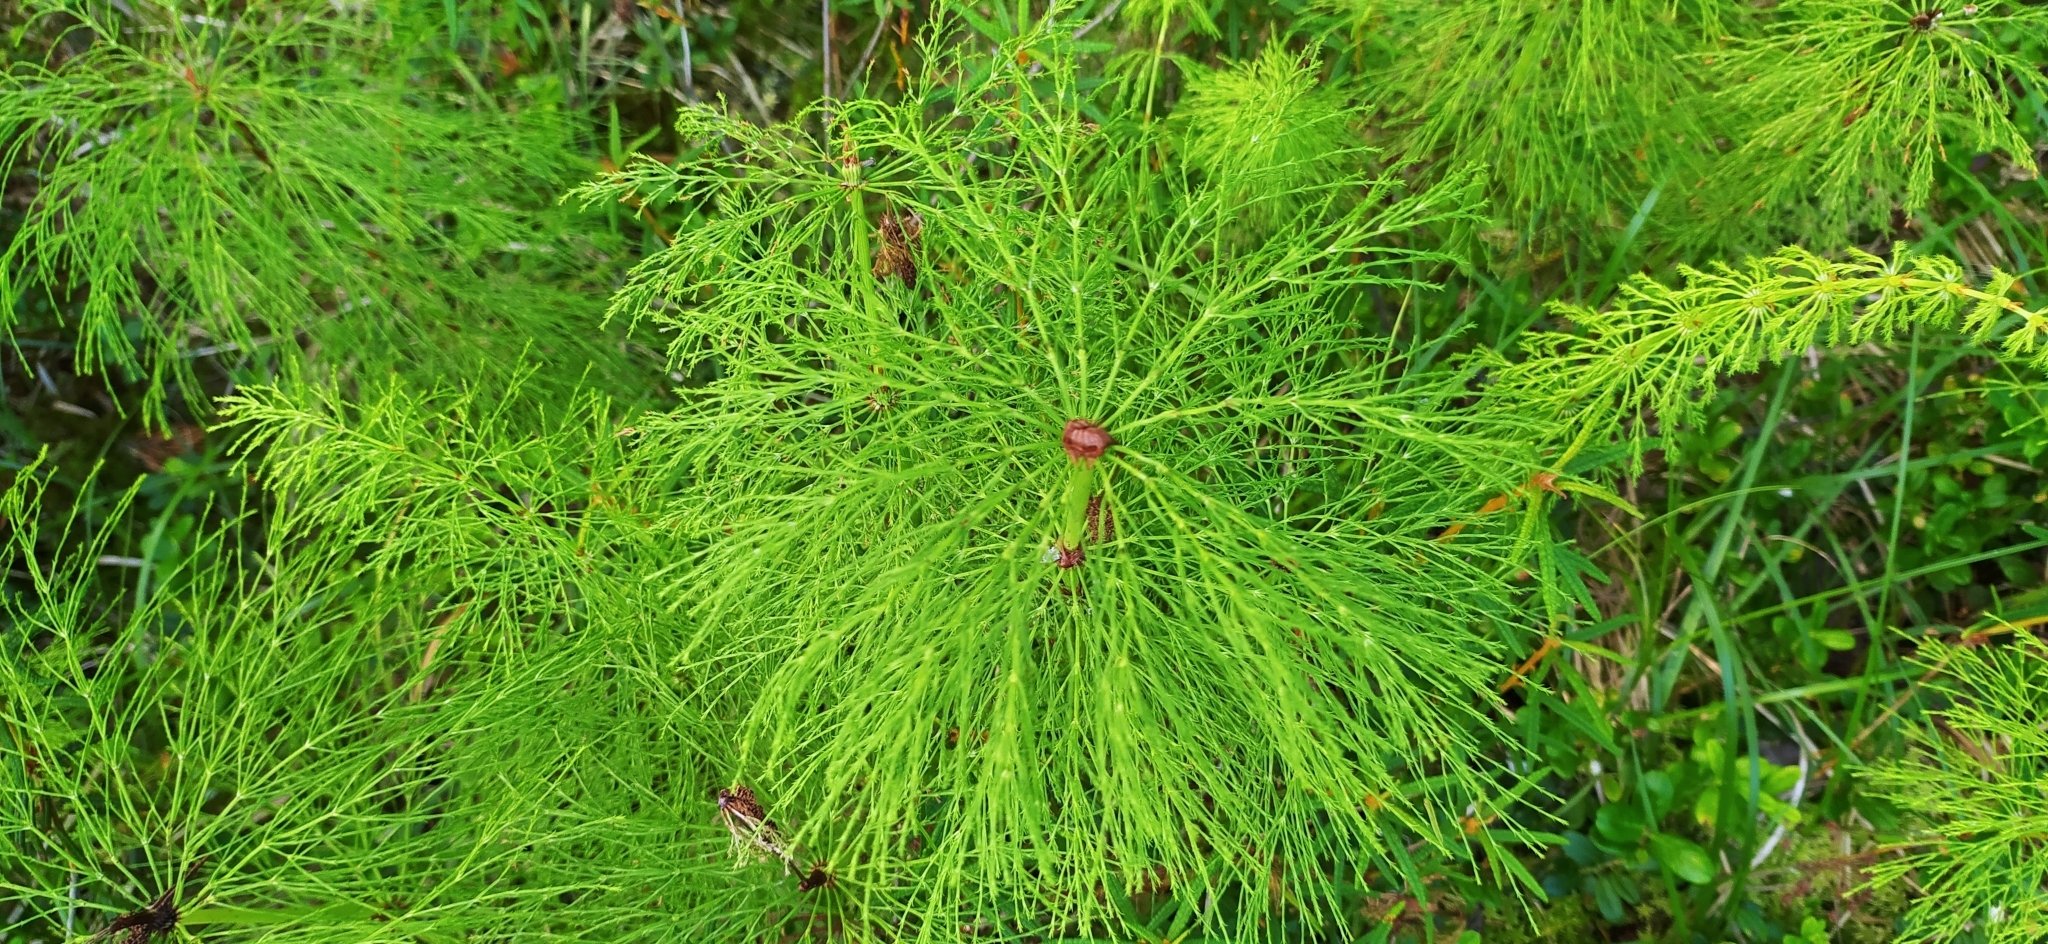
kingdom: Plantae
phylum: Tracheophyta
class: Polypodiopsida
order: Equisetales
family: Equisetaceae
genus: Equisetum
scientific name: Equisetum sylvaticum
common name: Wood horsetail
